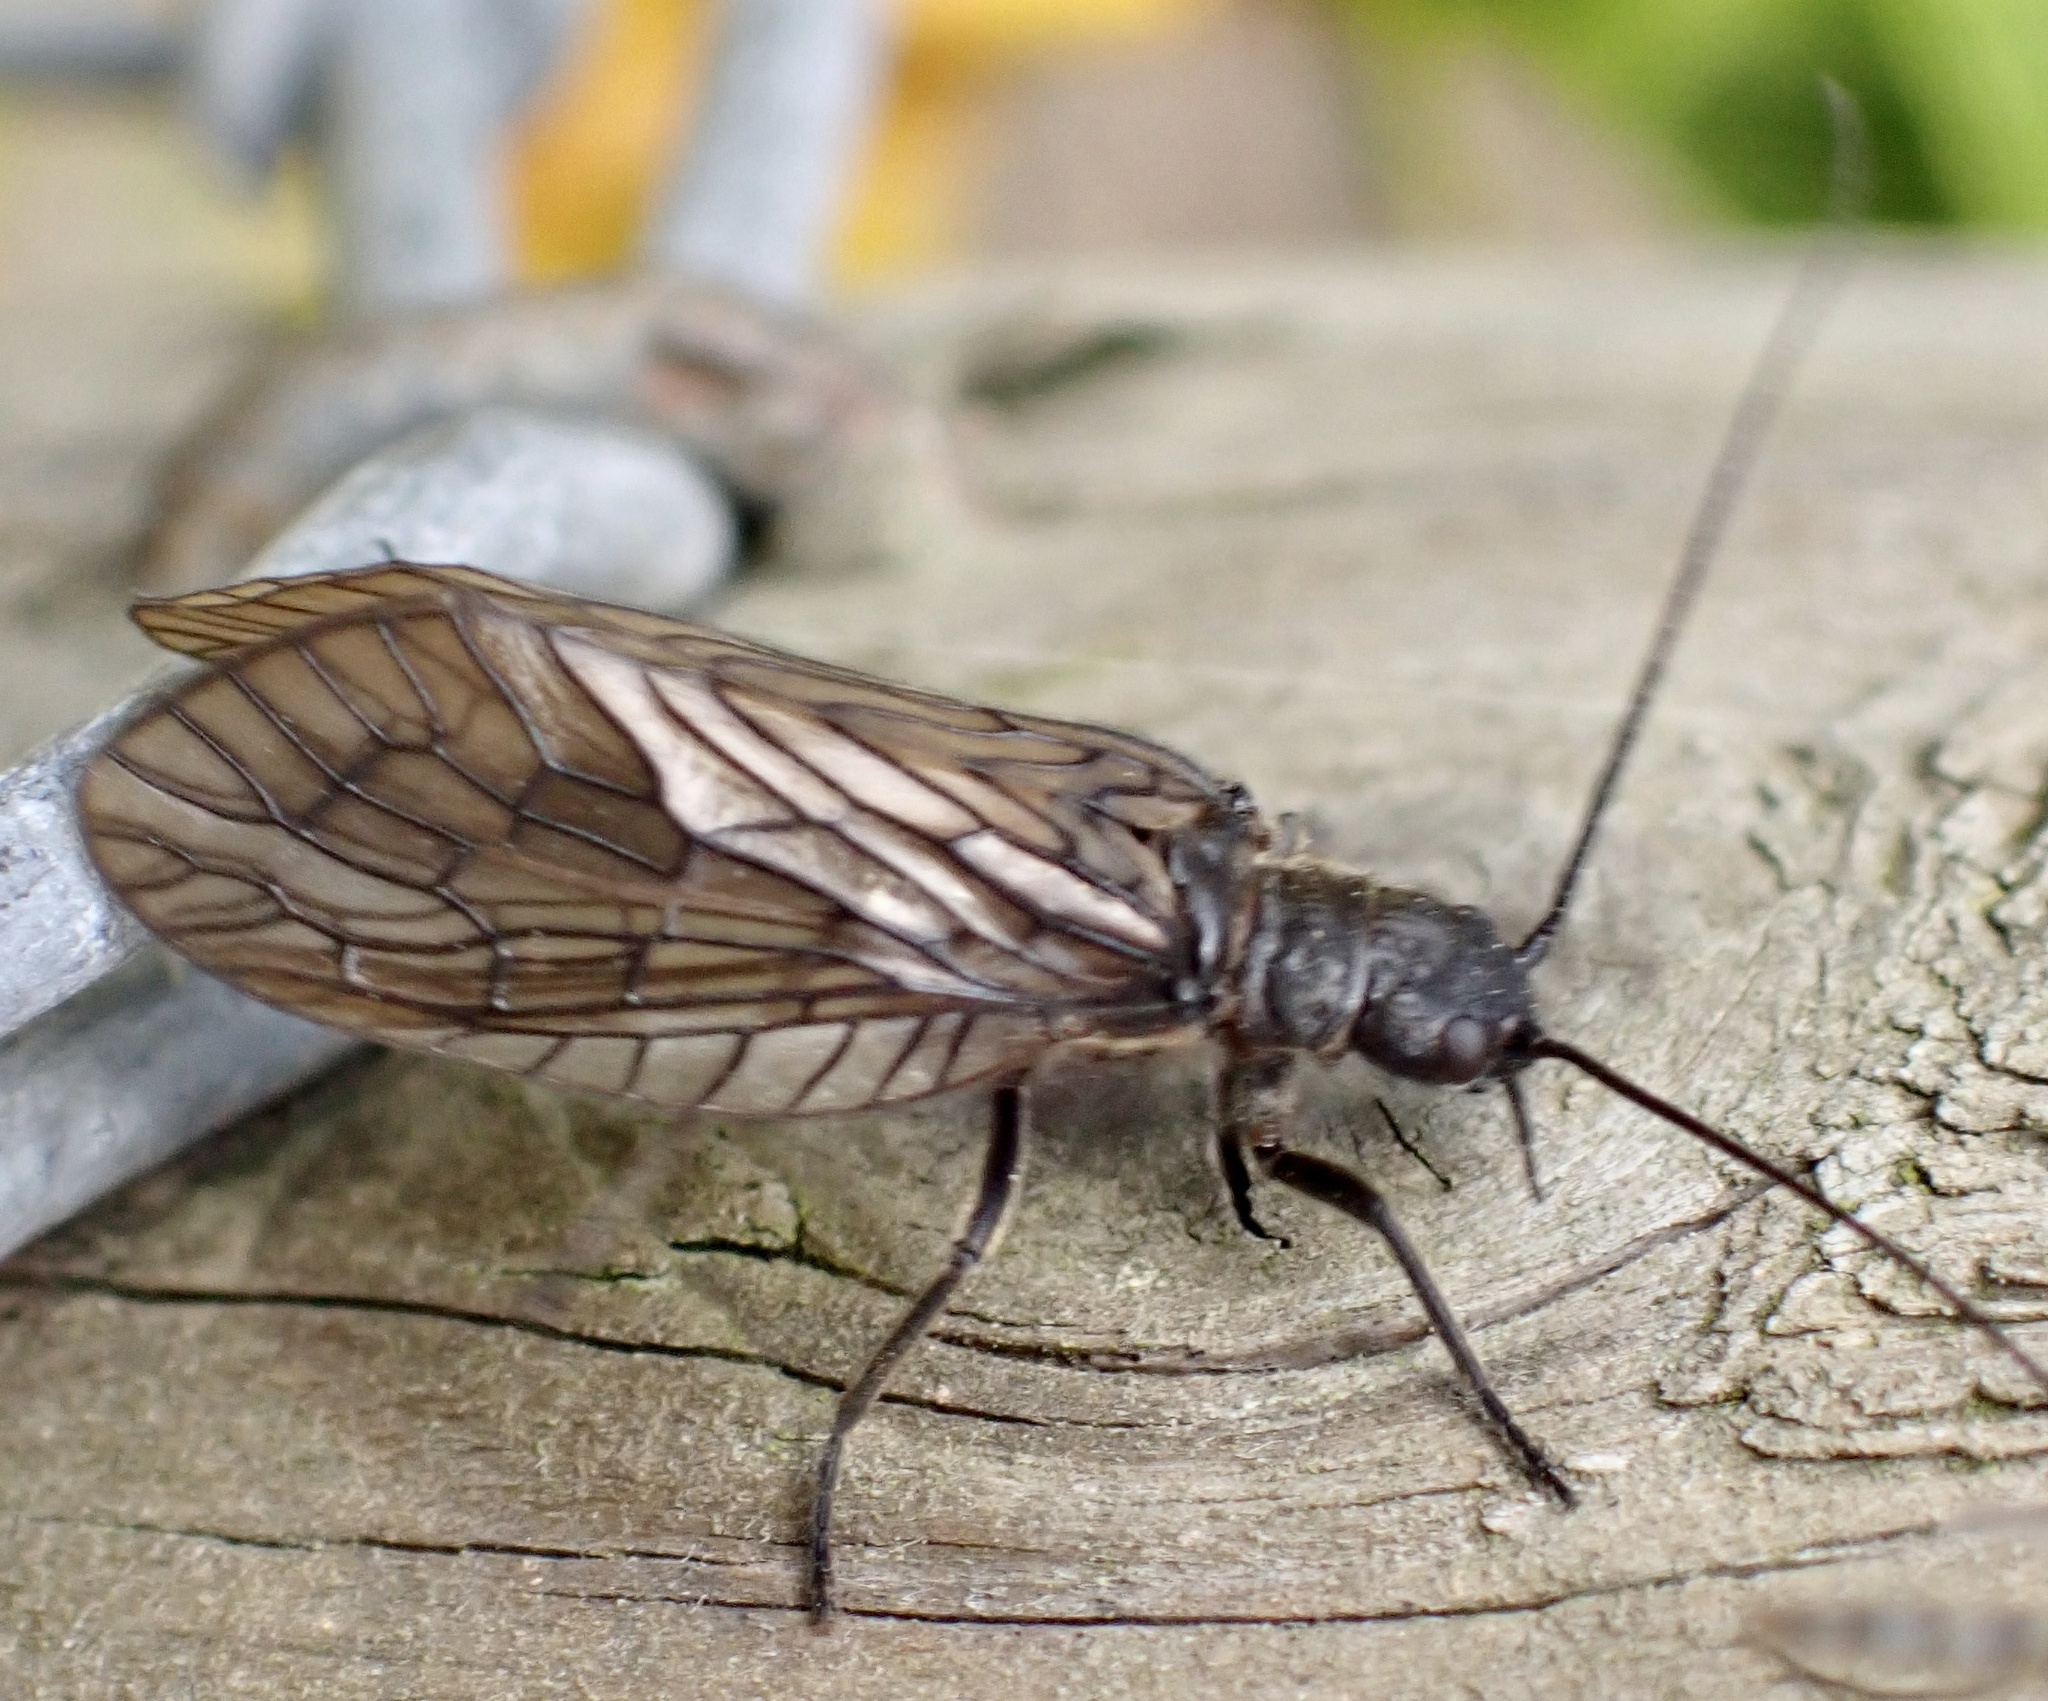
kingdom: Animalia
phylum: Arthropoda
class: Insecta
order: Megaloptera
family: Sialidae
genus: Sialis
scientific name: Sialis
